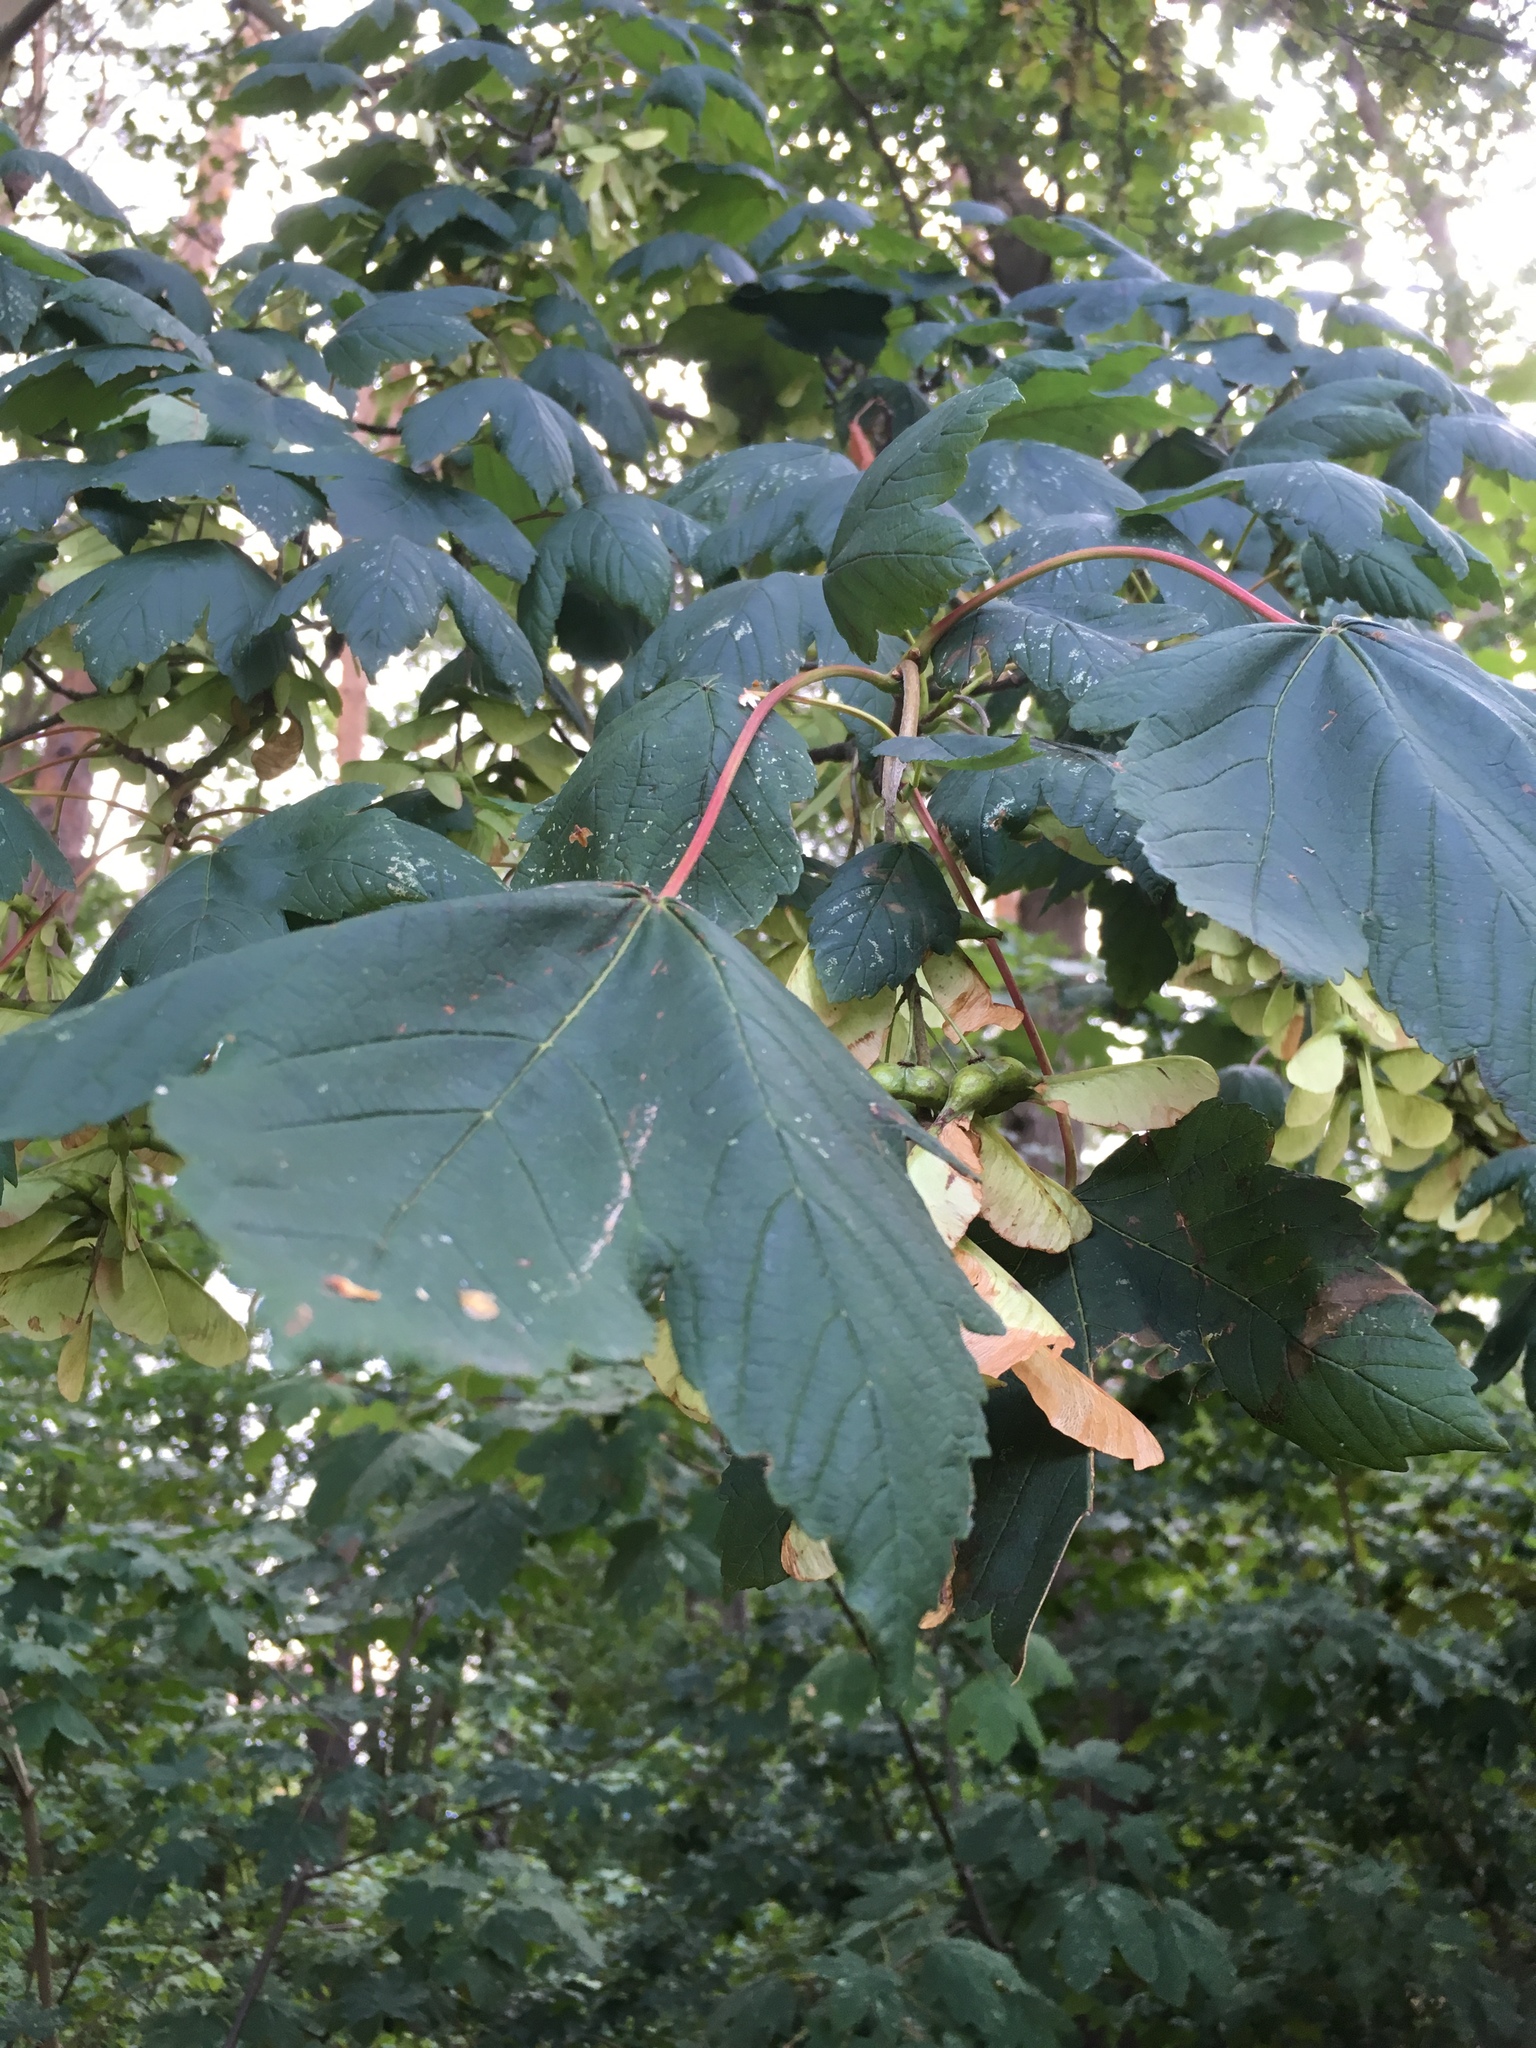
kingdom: Plantae
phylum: Tracheophyta
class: Magnoliopsida
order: Sapindales
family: Sapindaceae
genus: Acer
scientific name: Acer pseudoplatanus
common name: Sycamore
